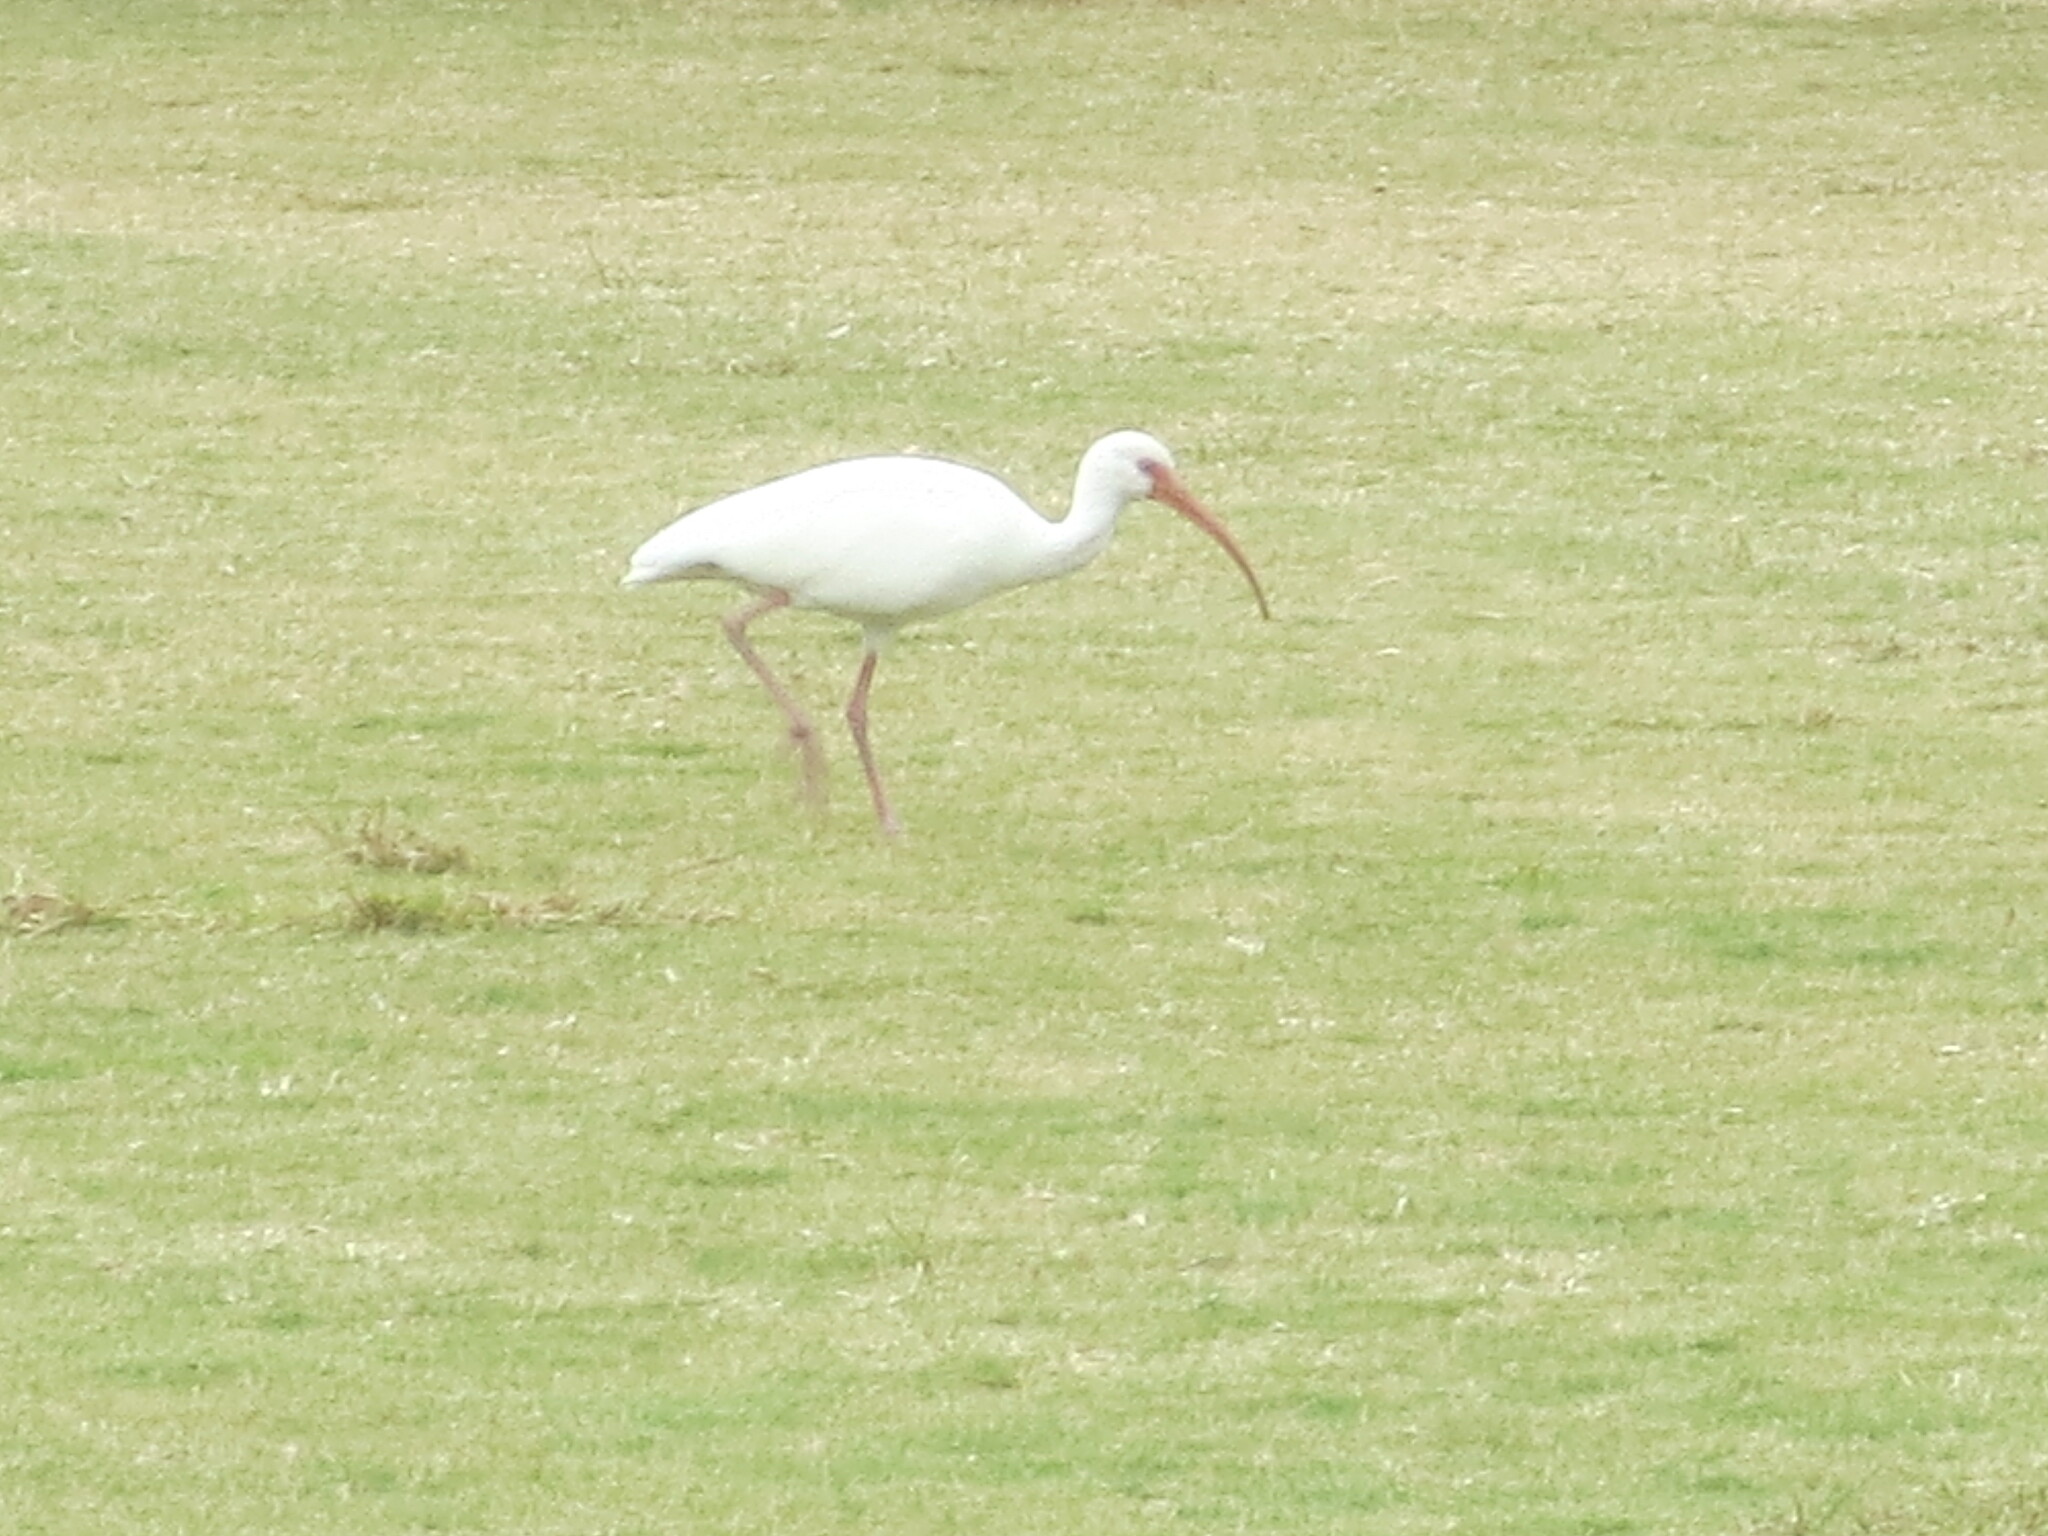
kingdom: Animalia
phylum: Chordata
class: Aves
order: Pelecaniformes
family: Threskiornithidae
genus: Eudocimus
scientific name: Eudocimus albus
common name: White ibis
